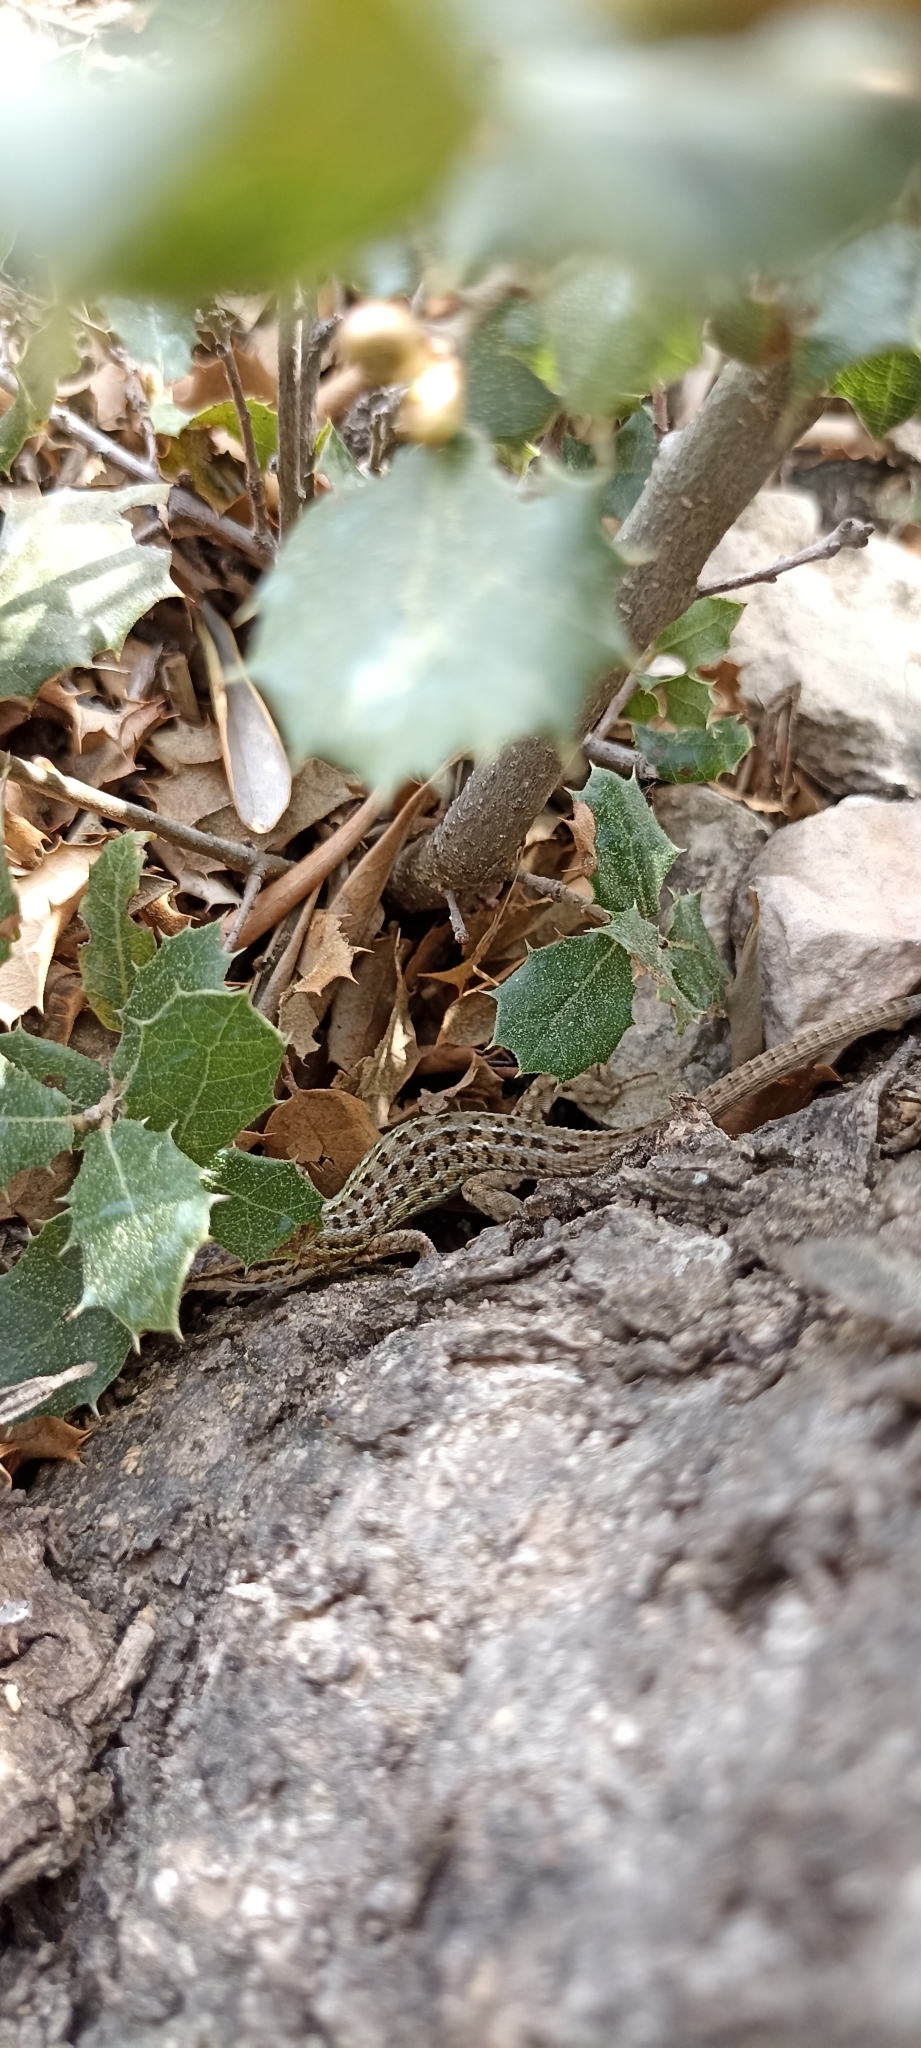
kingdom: Animalia
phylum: Chordata
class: Squamata
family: Lacertidae
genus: Psammodromus
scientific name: Psammodromus edwarsianus
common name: East iberian psammodromus
